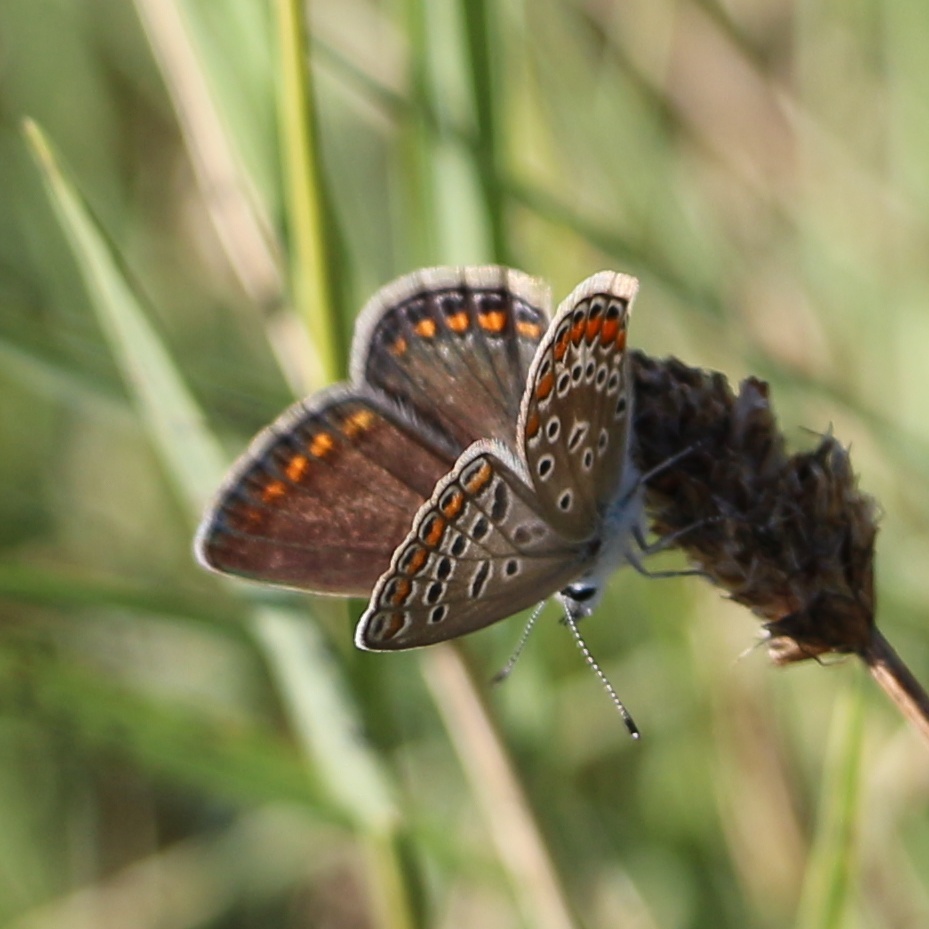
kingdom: Animalia
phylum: Arthropoda
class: Insecta
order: Lepidoptera
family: Lycaenidae
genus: Polyommatus
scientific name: Polyommatus icarus
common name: Common blue
